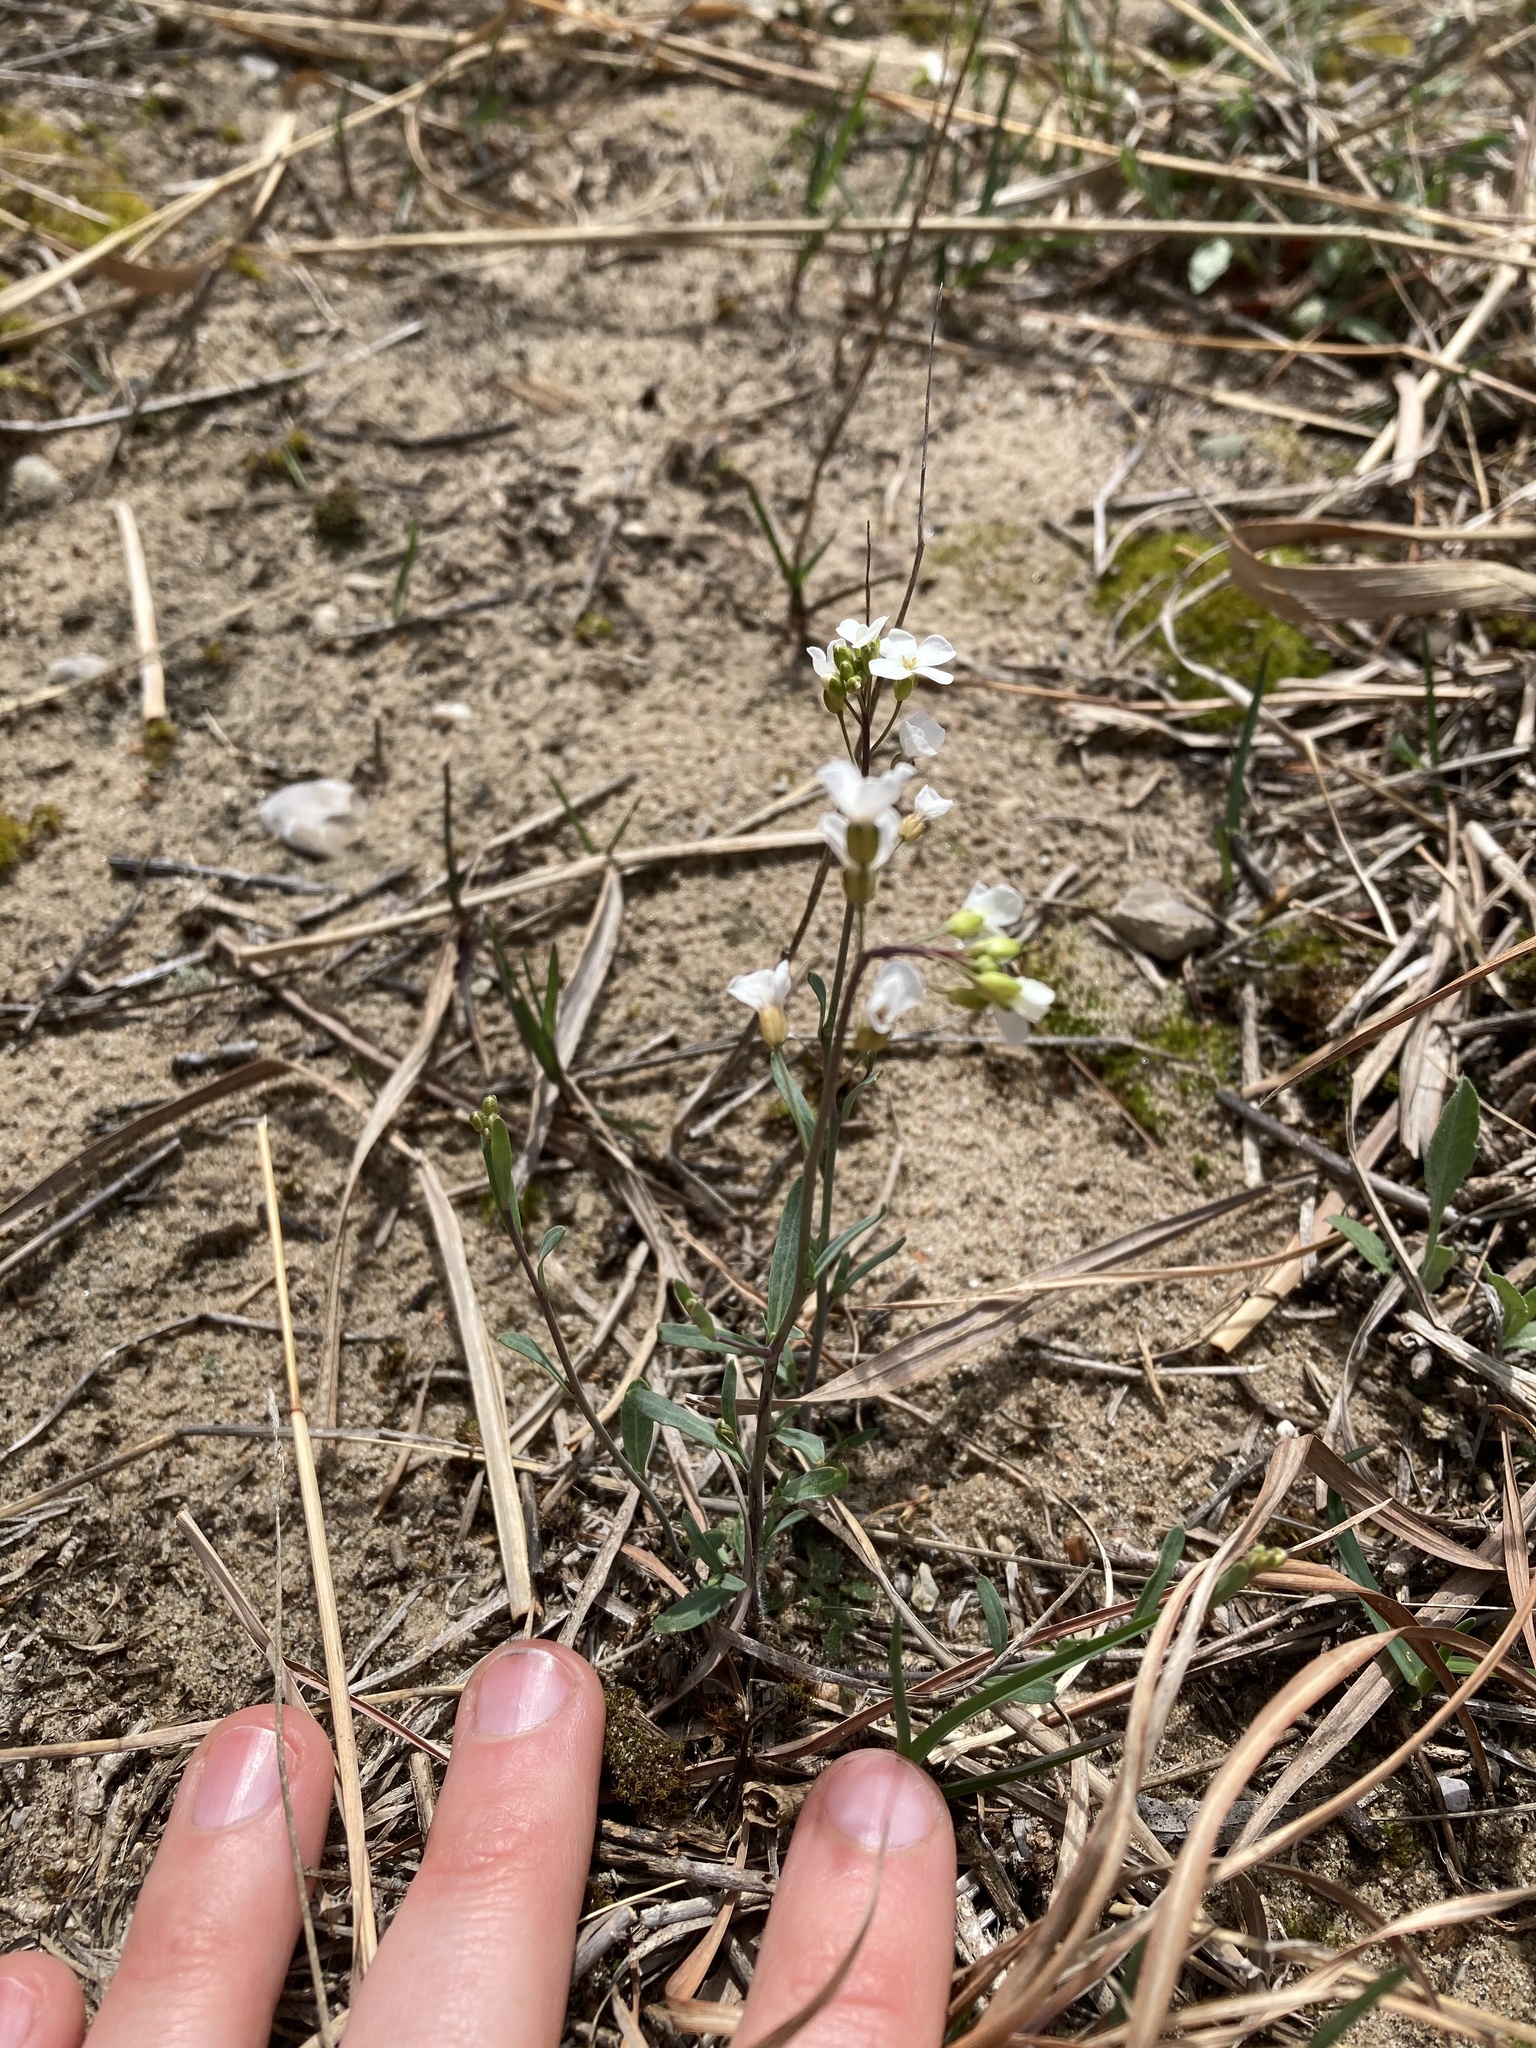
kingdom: Plantae
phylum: Tracheophyta
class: Magnoliopsida
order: Brassicales
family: Brassicaceae
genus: Arabidopsis
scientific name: Arabidopsis lyrata
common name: Lyrate rockcress
